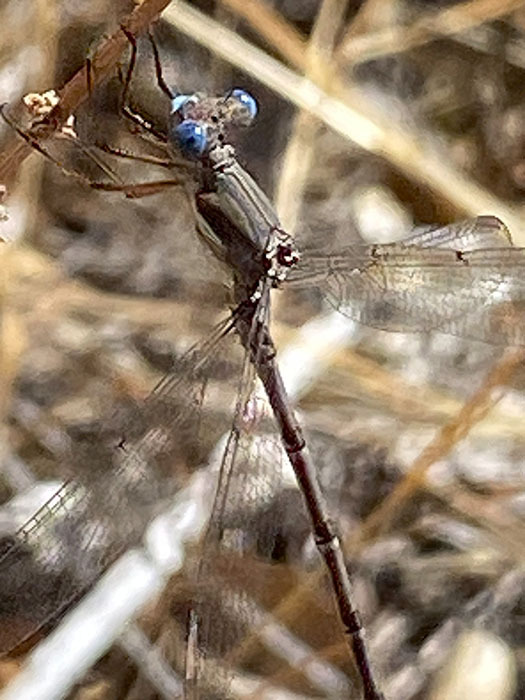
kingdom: Animalia
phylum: Arthropoda
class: Insecta
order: Odonata
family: Lestidae
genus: Archilestes
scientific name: Archilestes californicus
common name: California spreadwing
